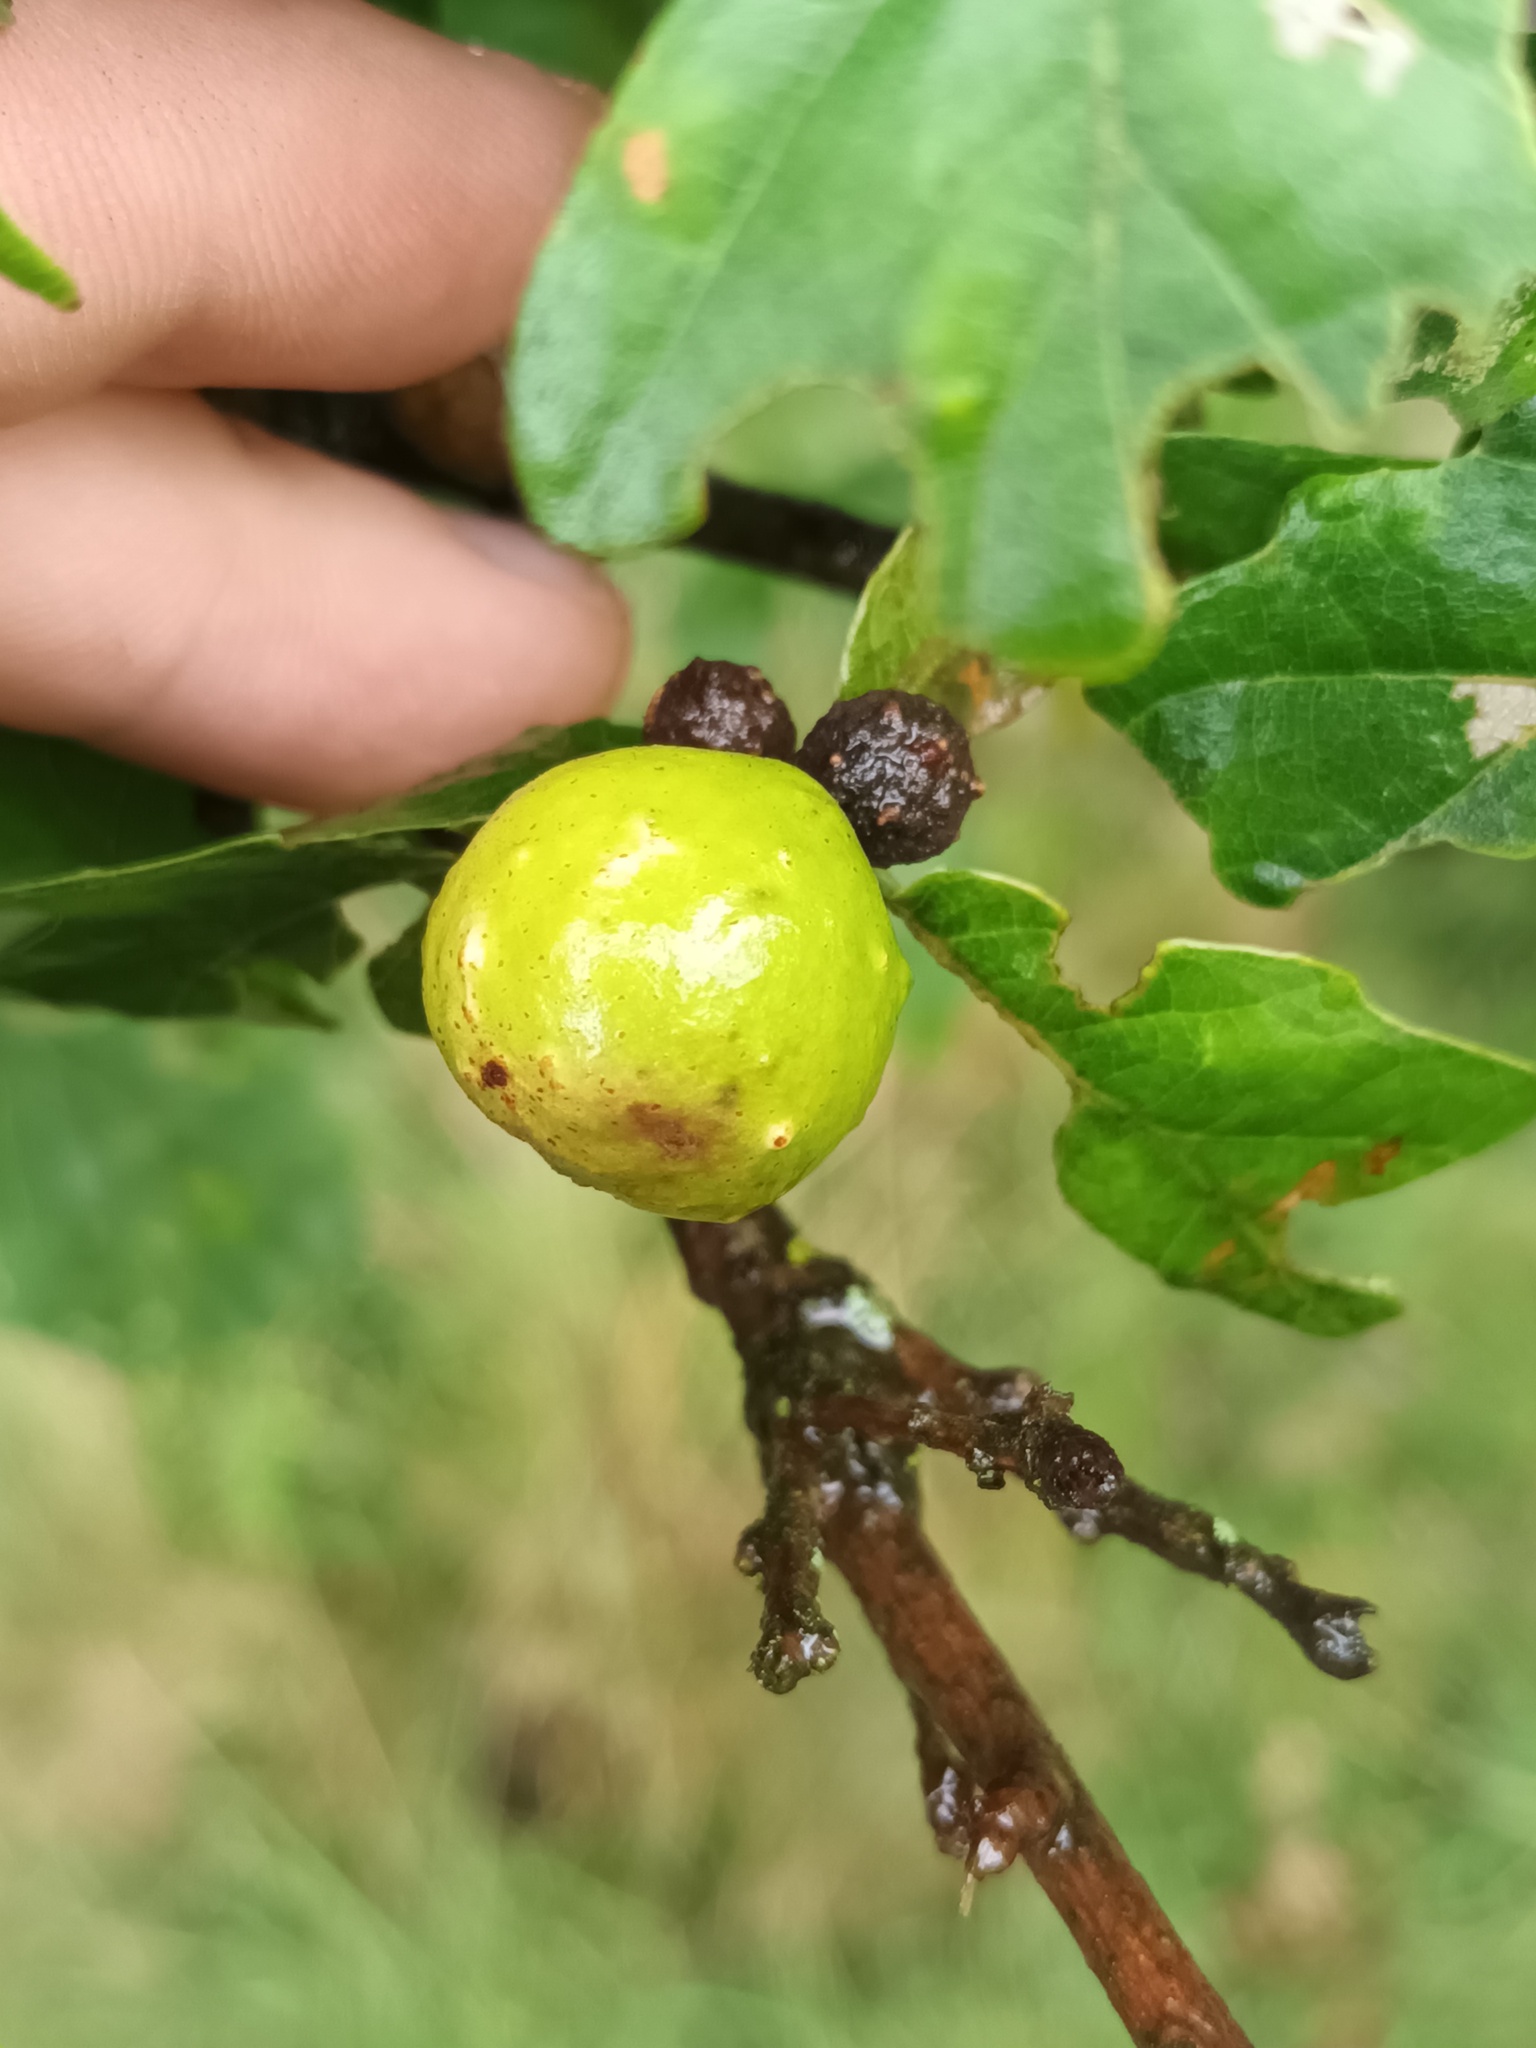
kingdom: Animalia
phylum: Arthropoda
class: Insecta
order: Hymenoptera
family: Cynipidae
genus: Andricus
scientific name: Andricus kollari
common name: Marble gall
